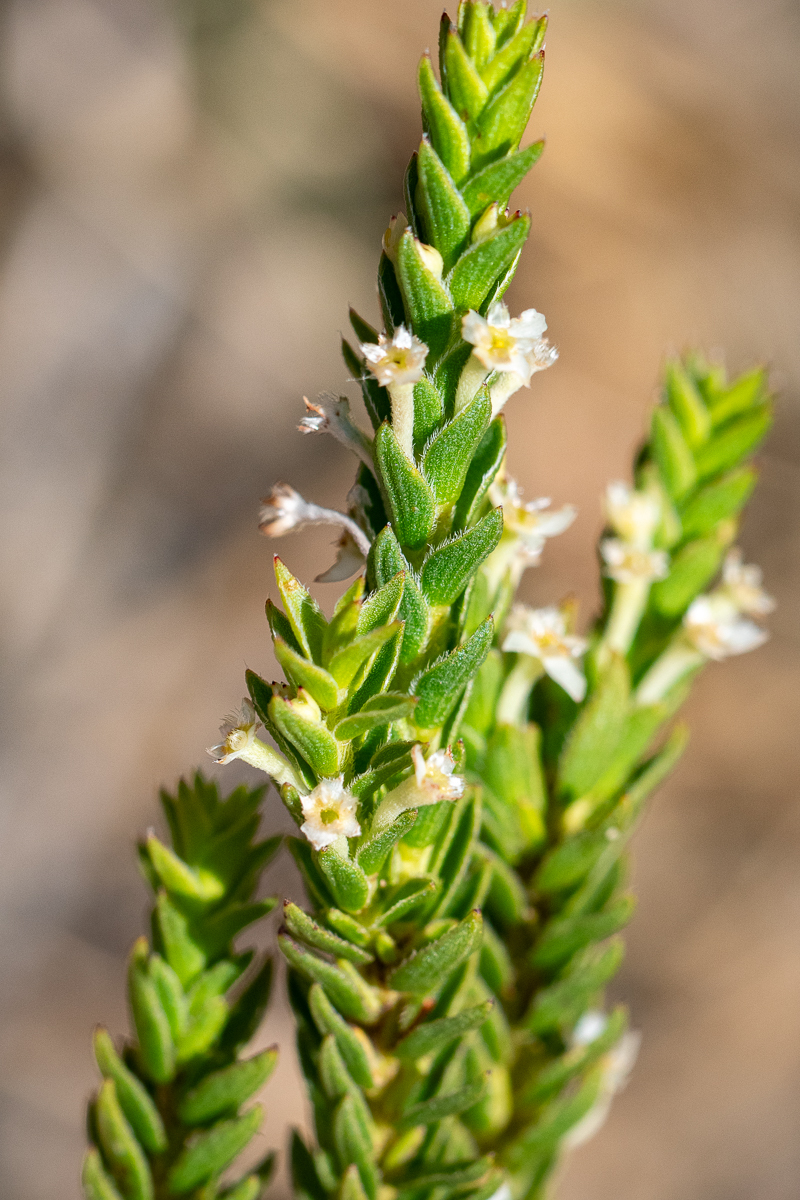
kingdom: Plantae
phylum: Tracheophyta
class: Magnoliopsida
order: Malvales
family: Thymelaeaceae
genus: Struthiola
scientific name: Struthiola striata
